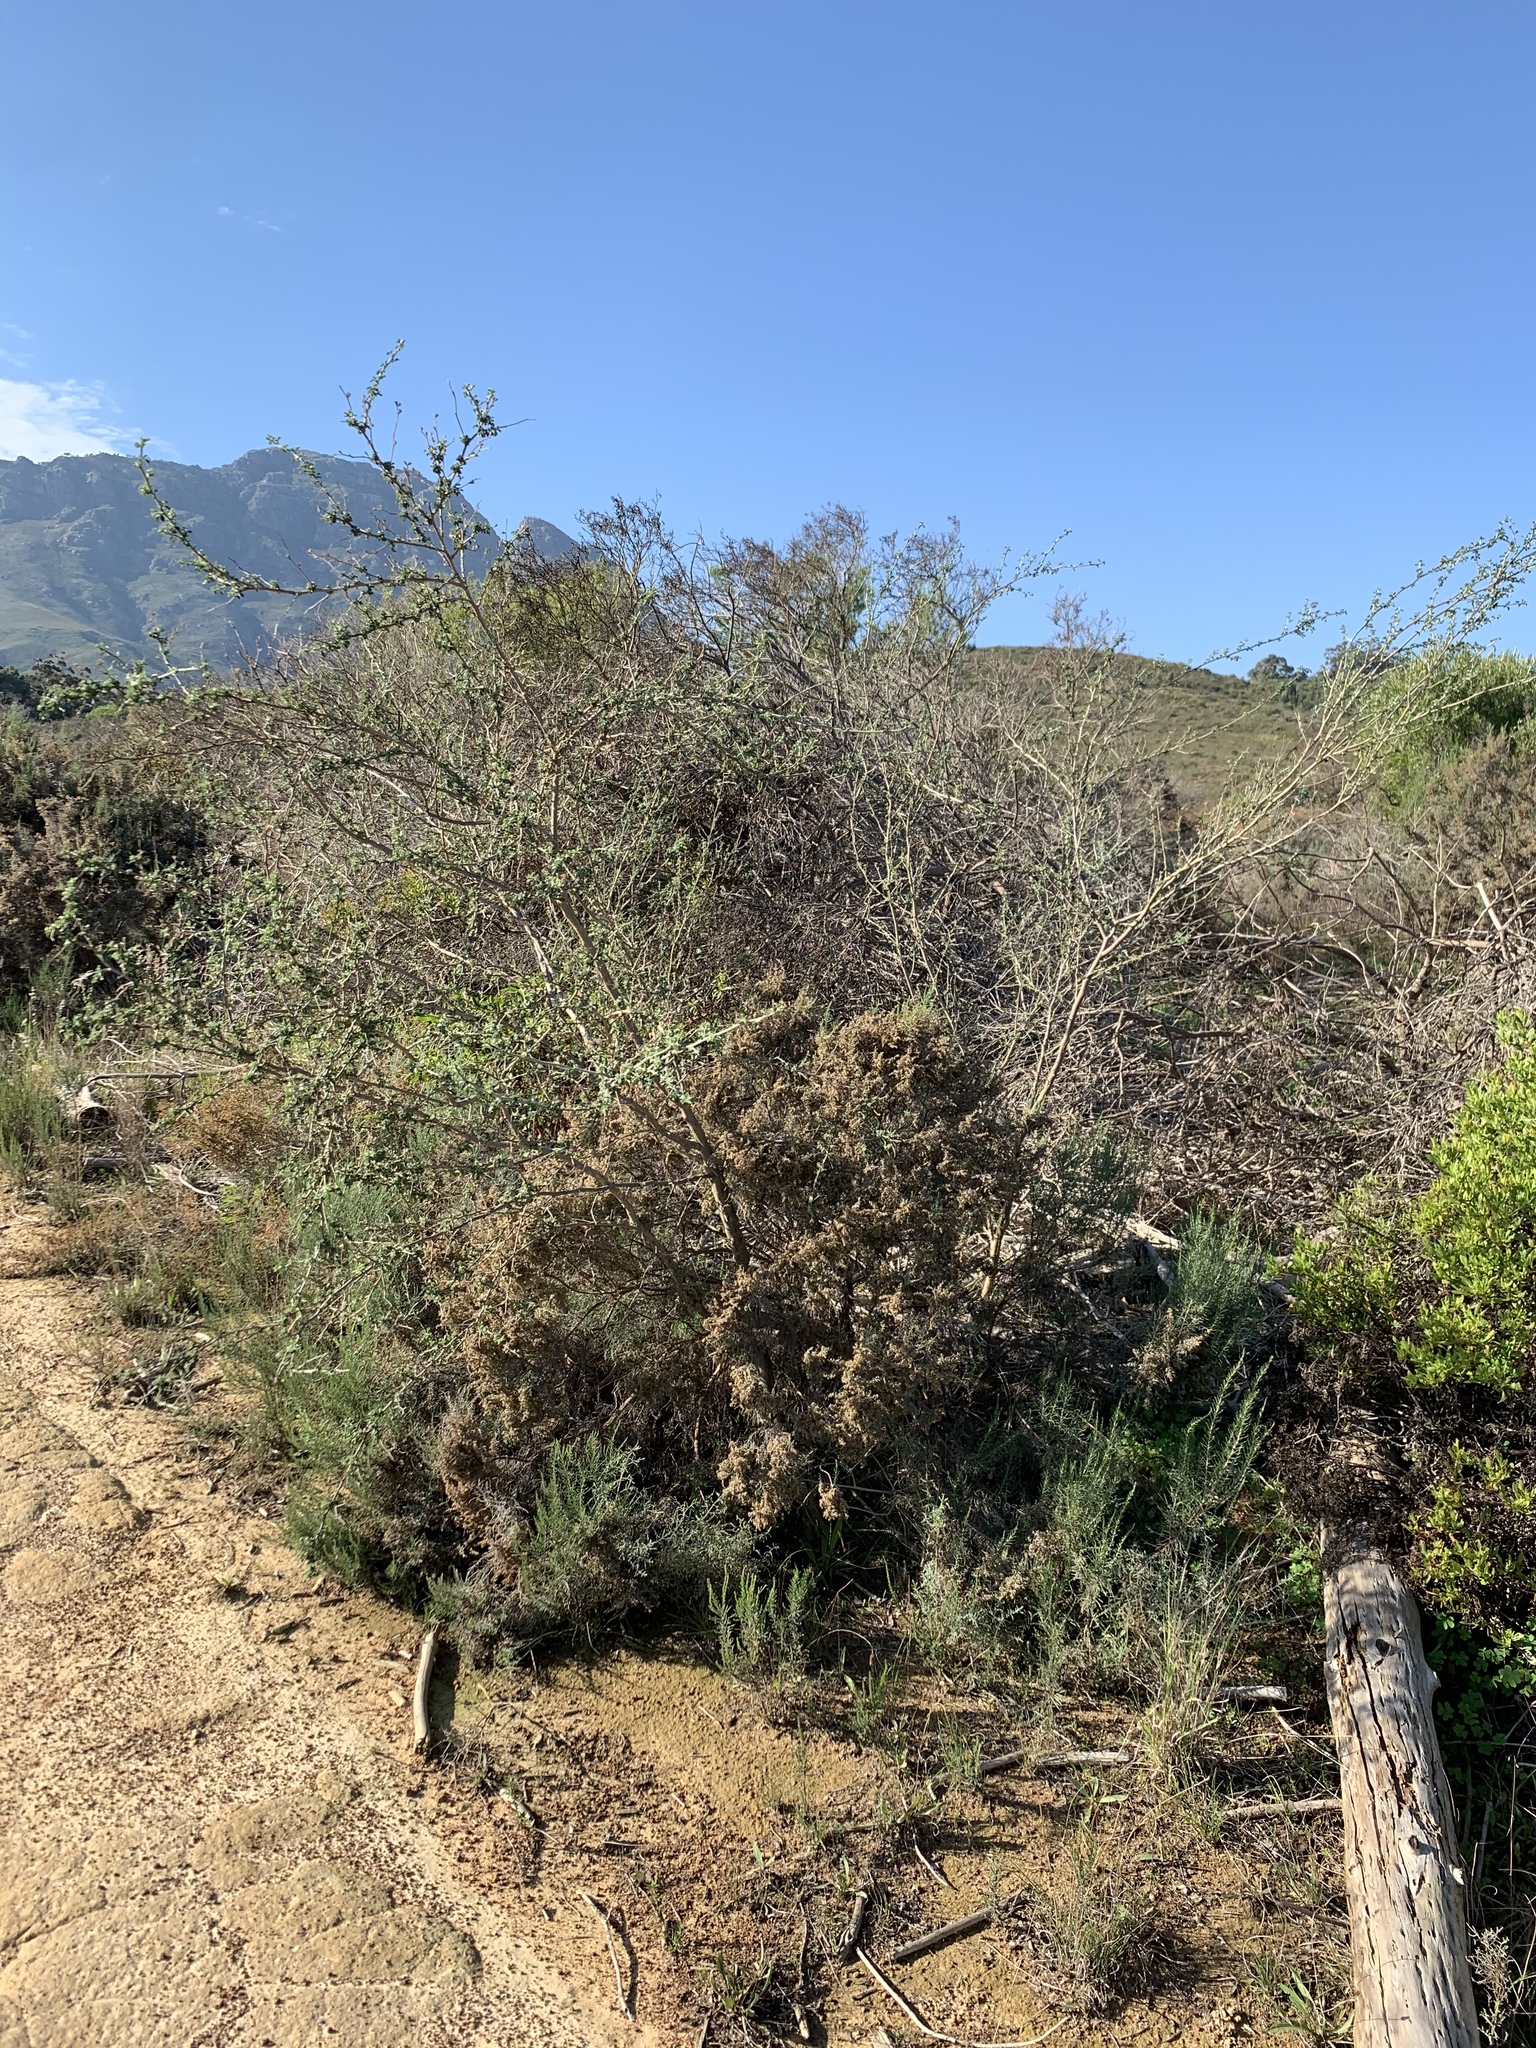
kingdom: Plantae
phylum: Tracheophyta
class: Magnoliopsida
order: Fabales
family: Fabaceae
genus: Psoralea
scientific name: Psoralea hirta
